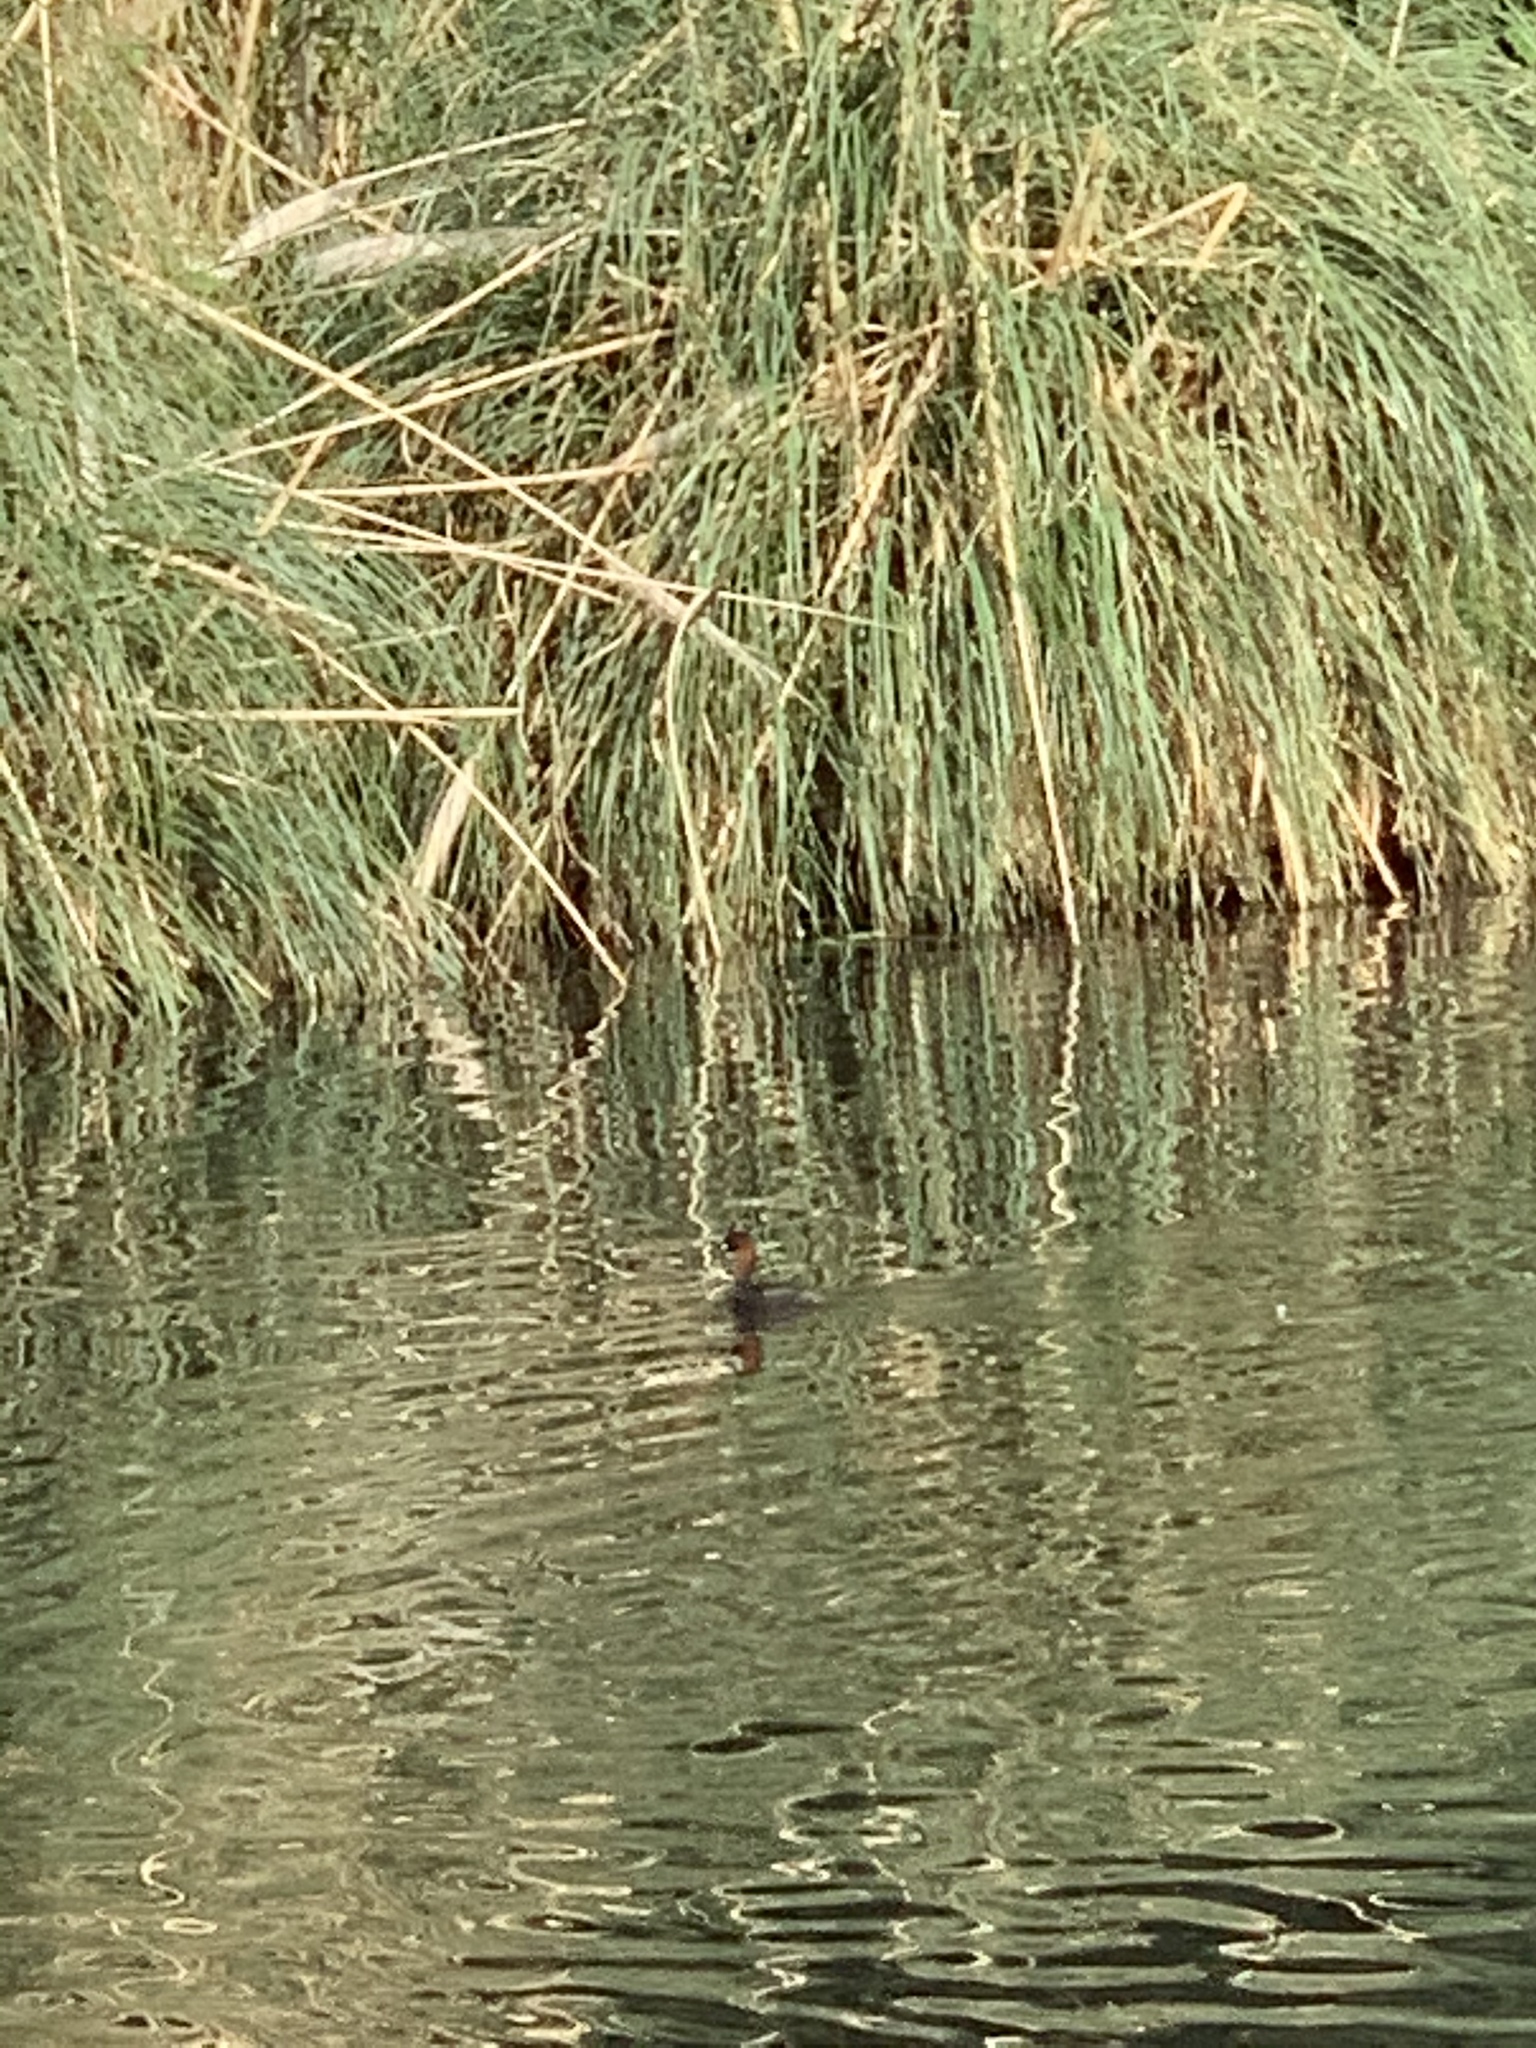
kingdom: Animalia
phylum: Chordata
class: Aves
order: Podicipediformes
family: Podicipedidae
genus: Tachybaptus
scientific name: Tachybaptus ruficollis
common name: Little grebe
